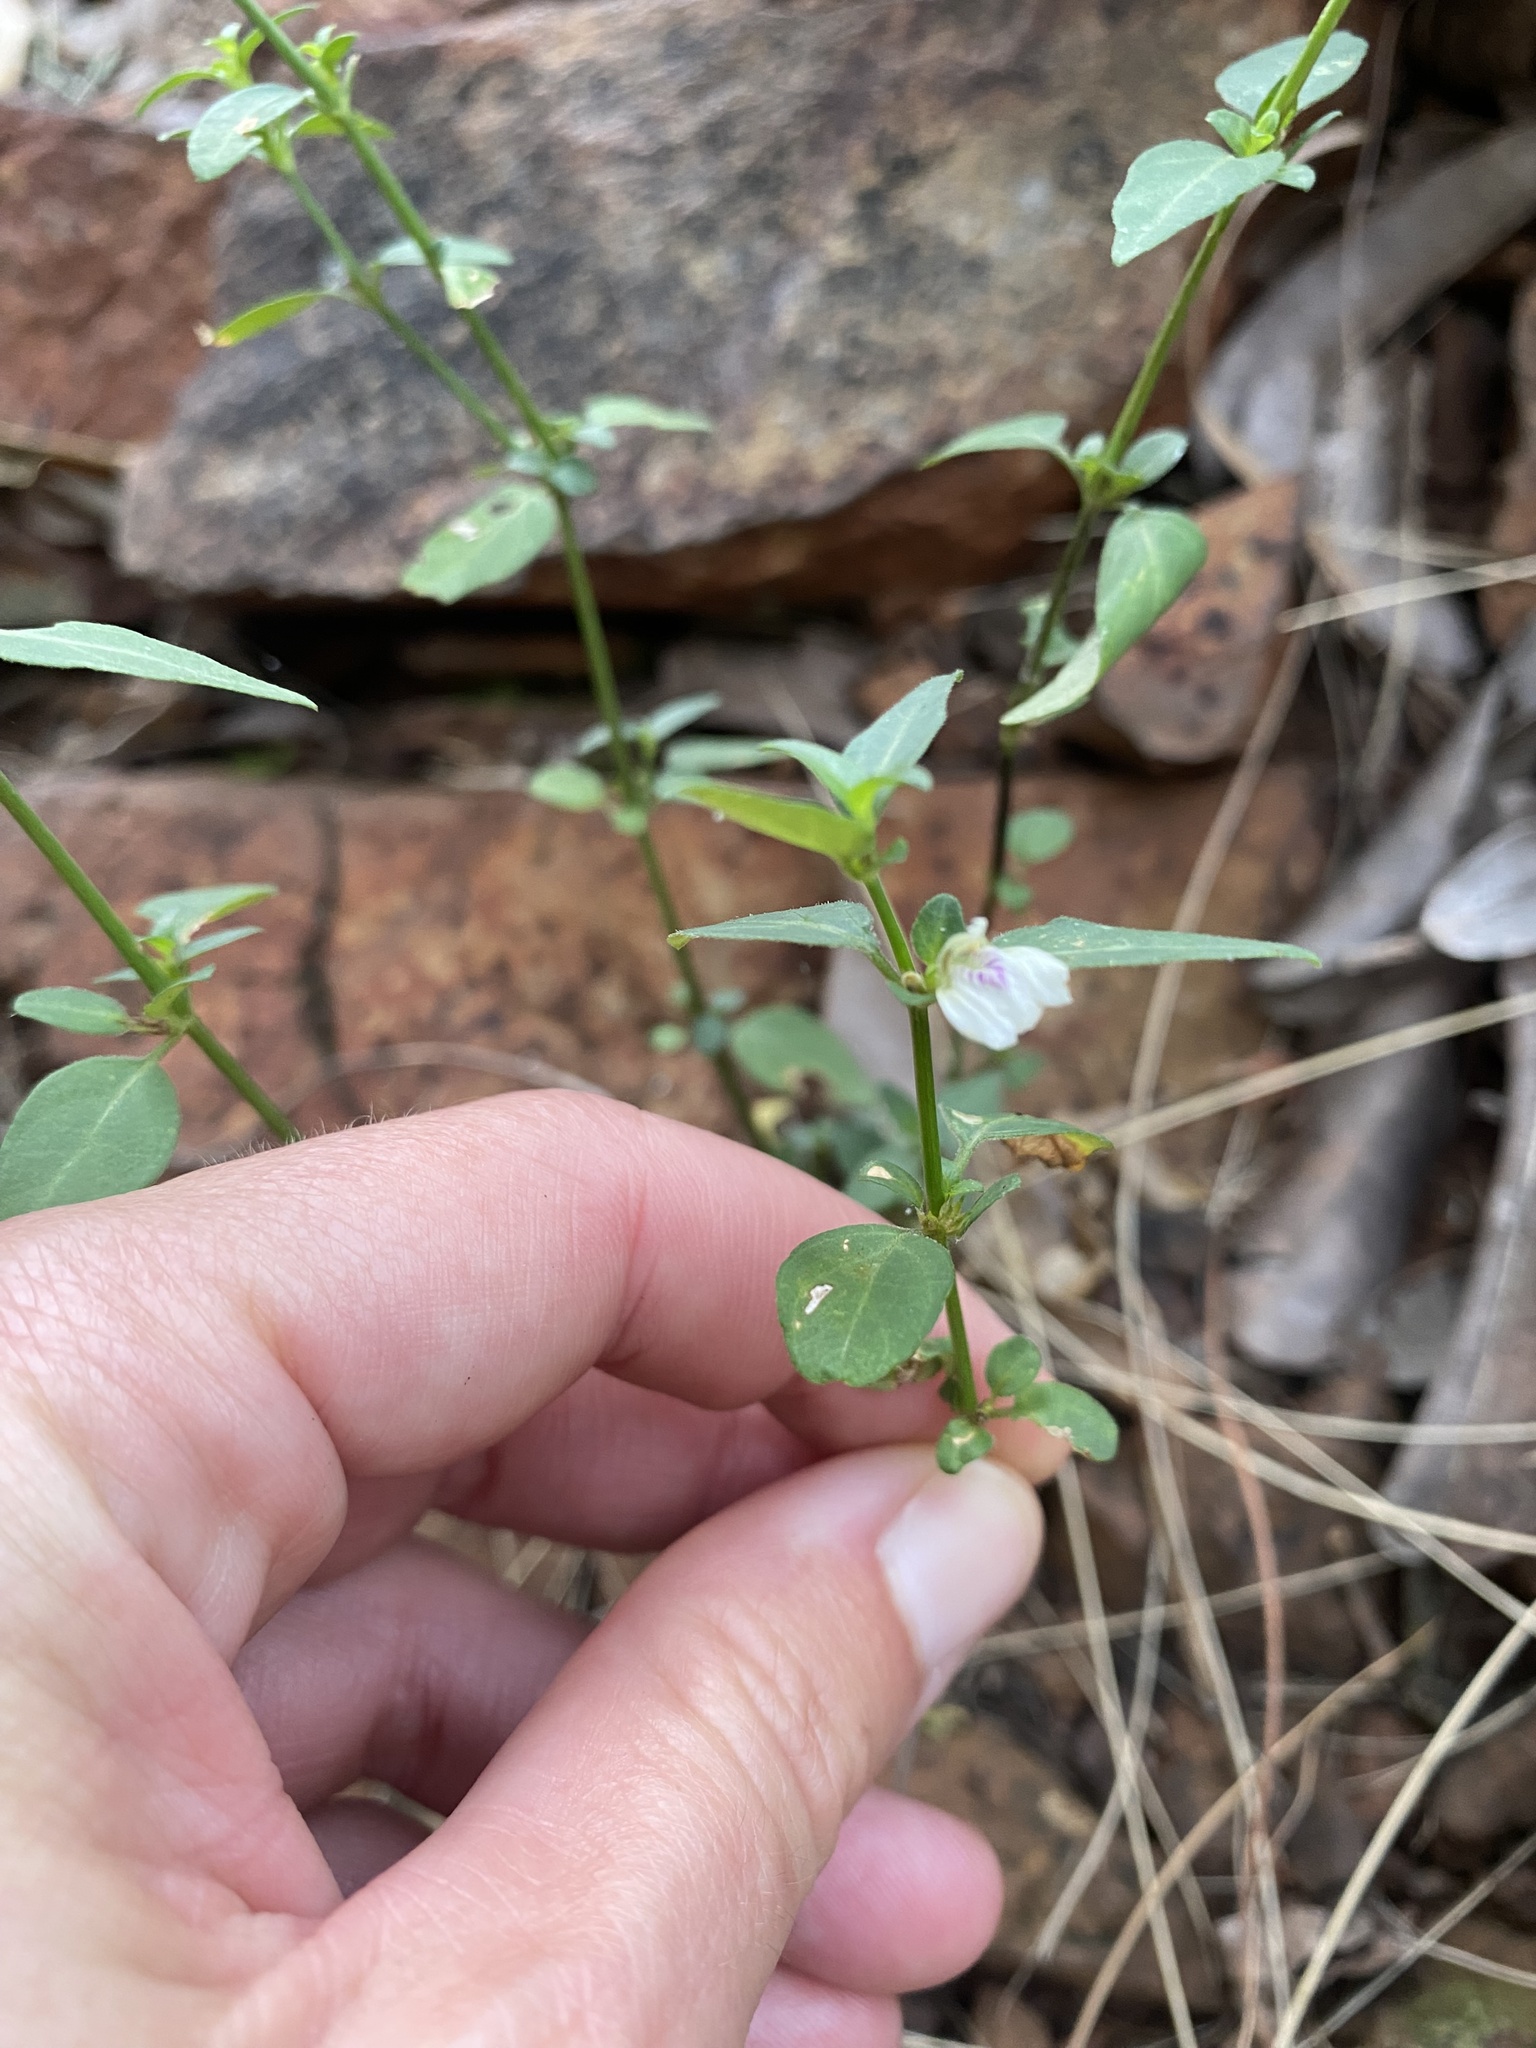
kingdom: Plantae
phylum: Tracheophyta
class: Magnoliopsida
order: Lamiales
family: Acanthaceae
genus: Justicia
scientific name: Justicia protracta
